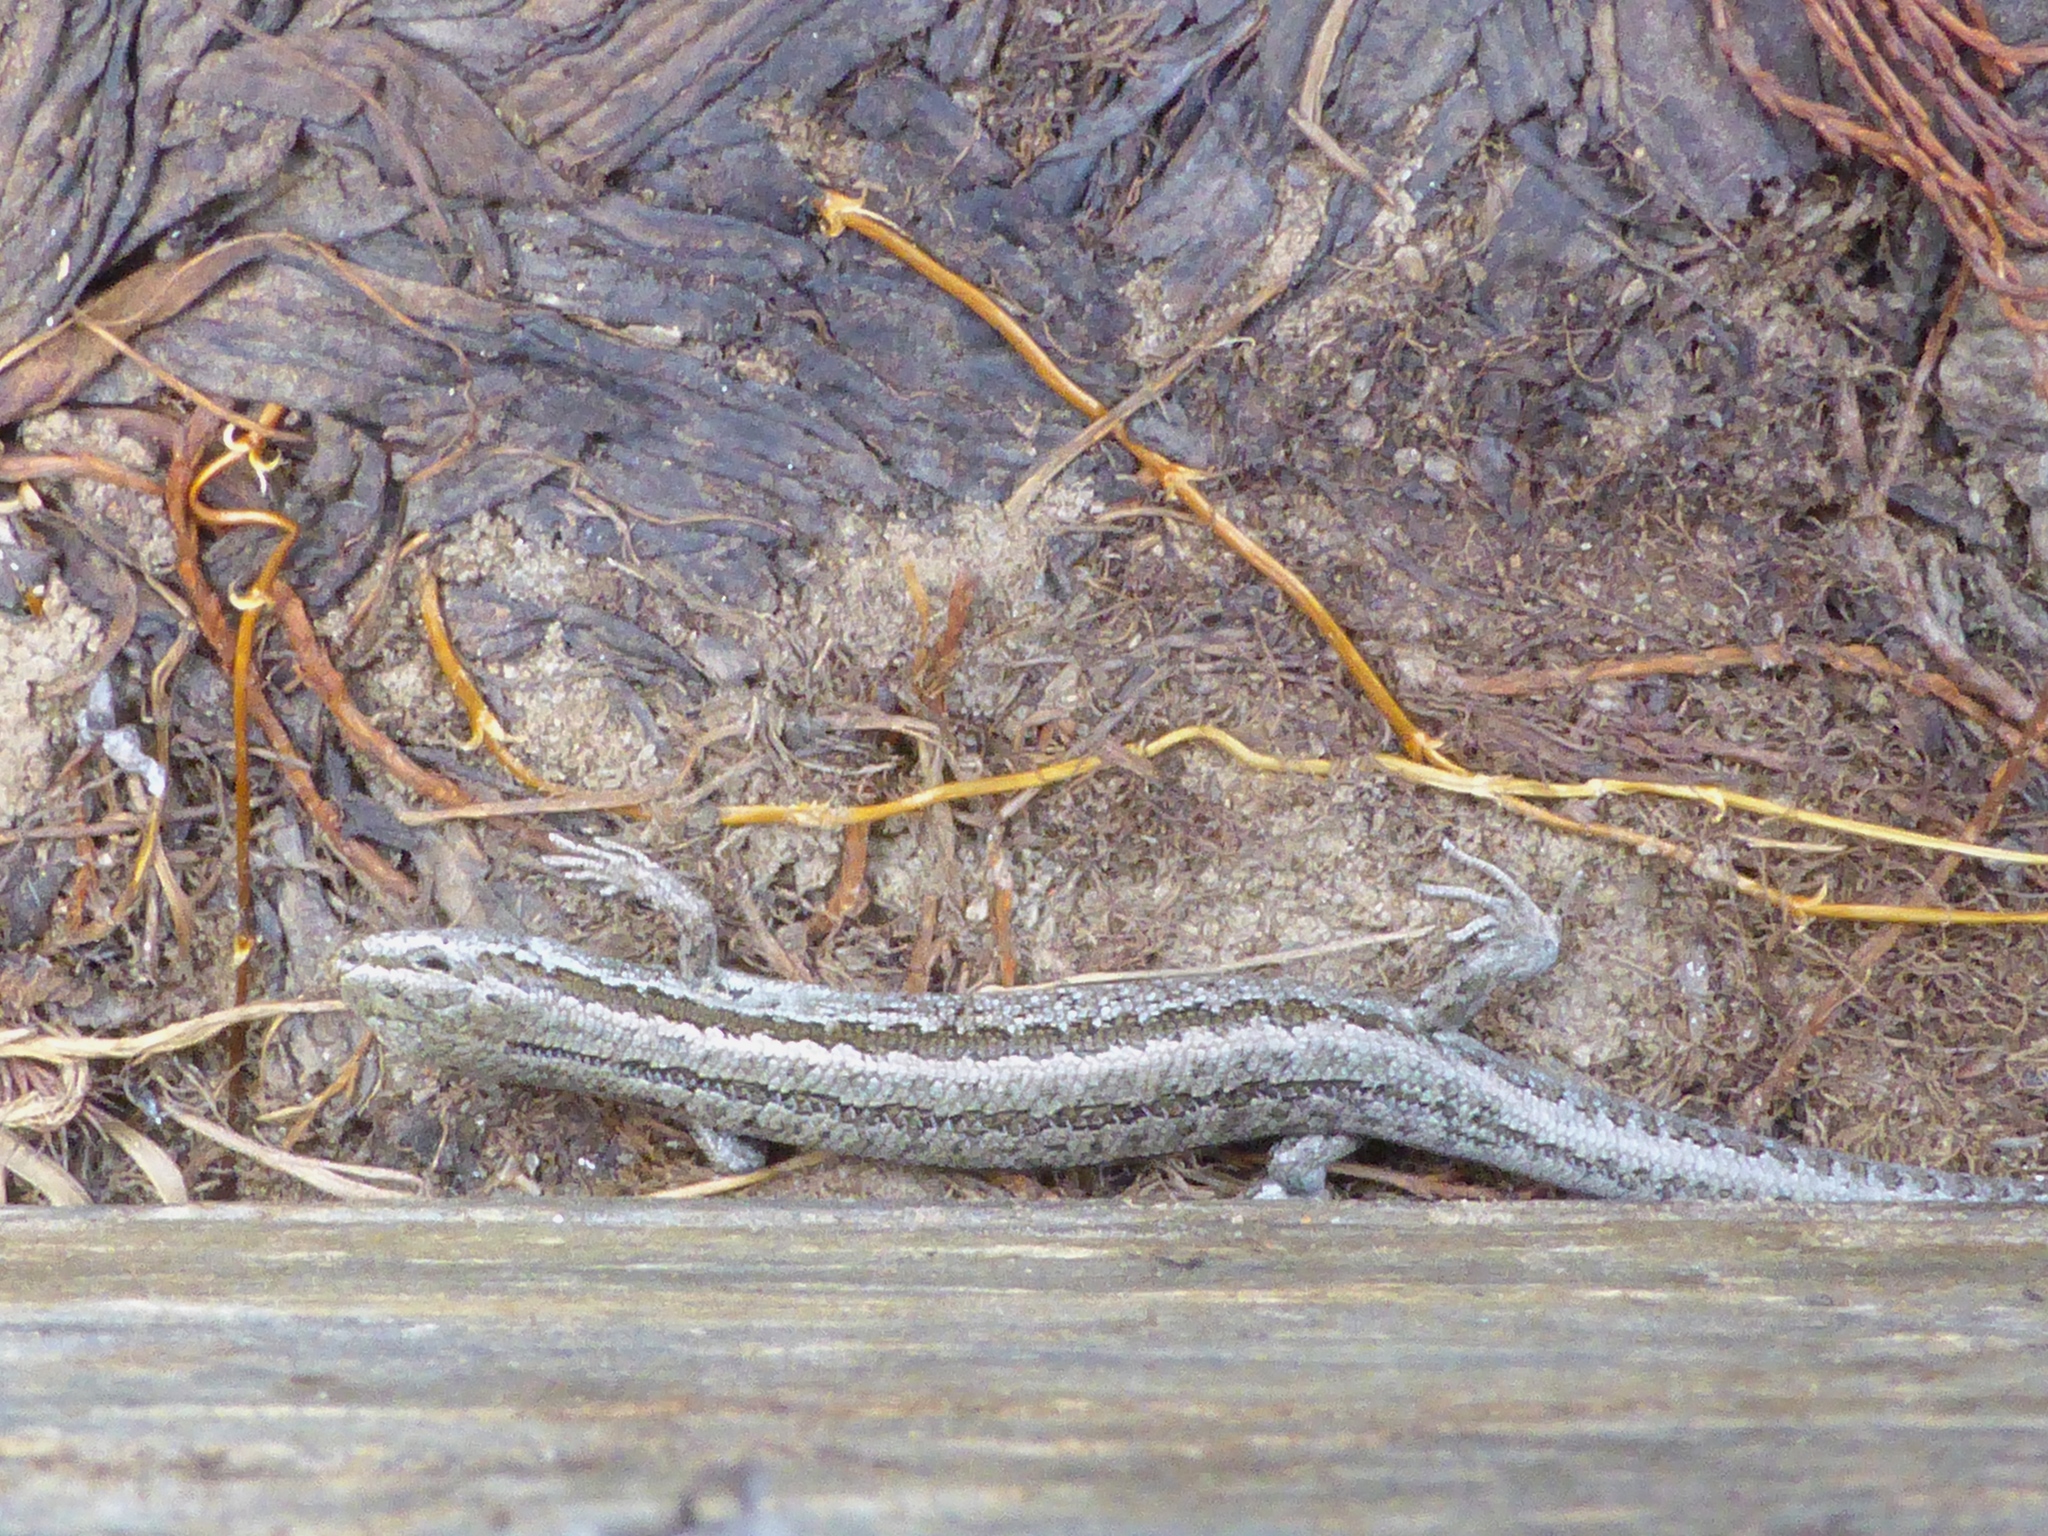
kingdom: Animalia
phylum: Chordata
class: Squamata
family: Scincidae
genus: Oligosoma
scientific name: Oligosoma maccanni
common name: Mccann’s skink
